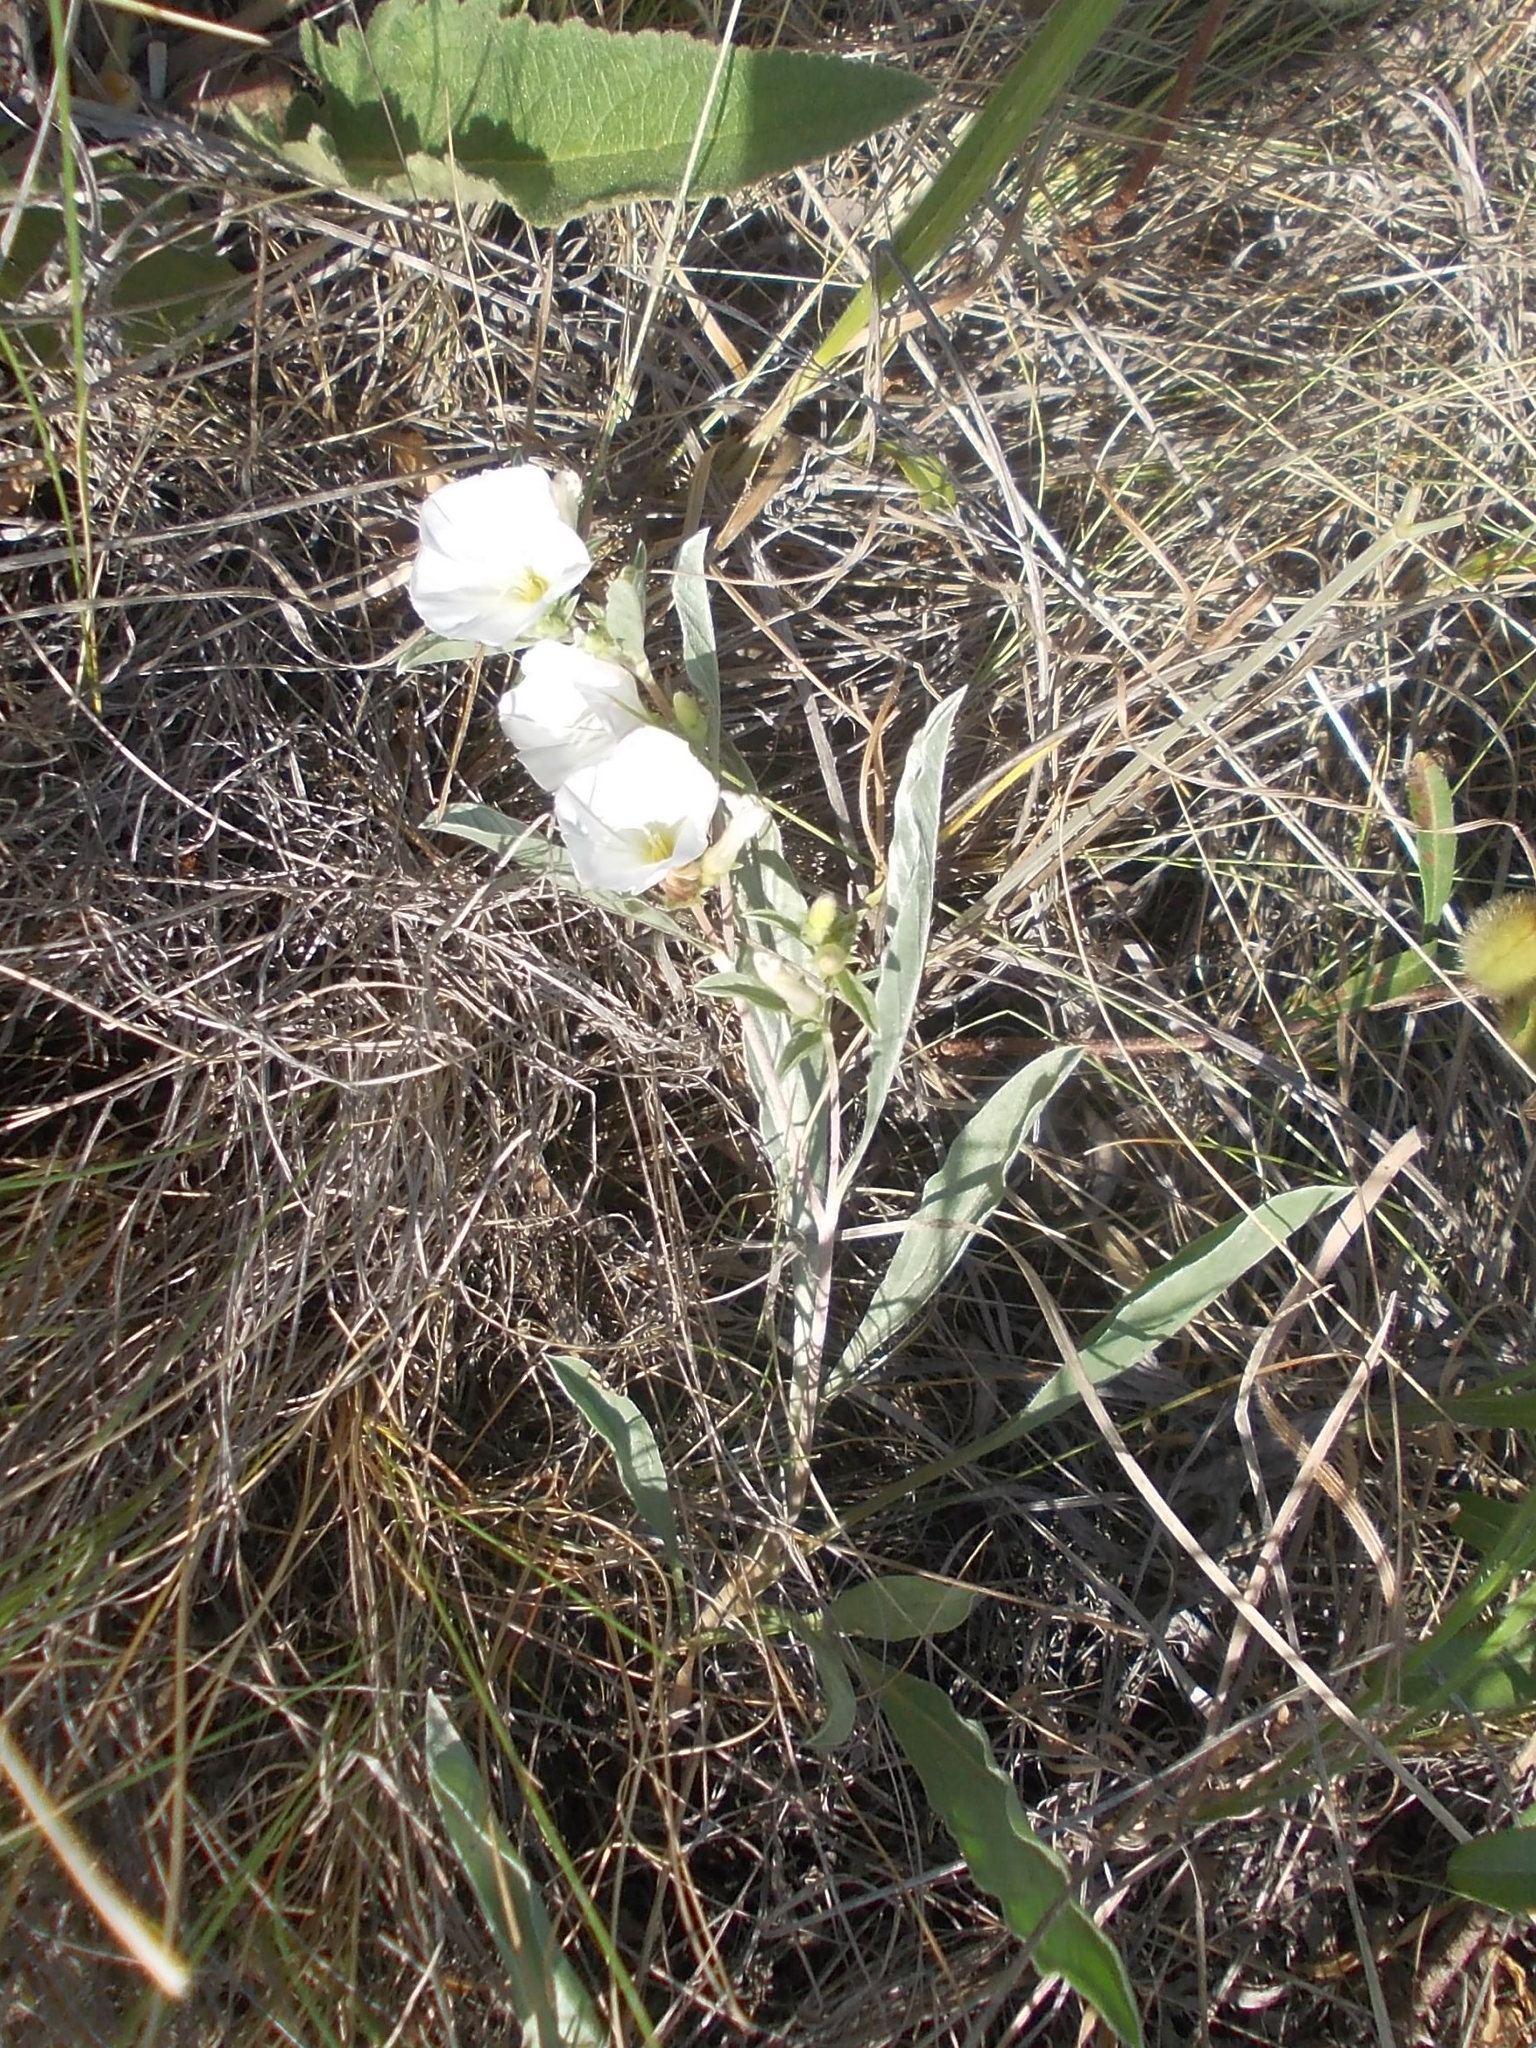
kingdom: Plantae
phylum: Tracheophyta
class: Magnoliopsida
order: Solanales
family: Convolvulaceae
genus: Convolvulus
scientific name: Convolvulus lineatus
